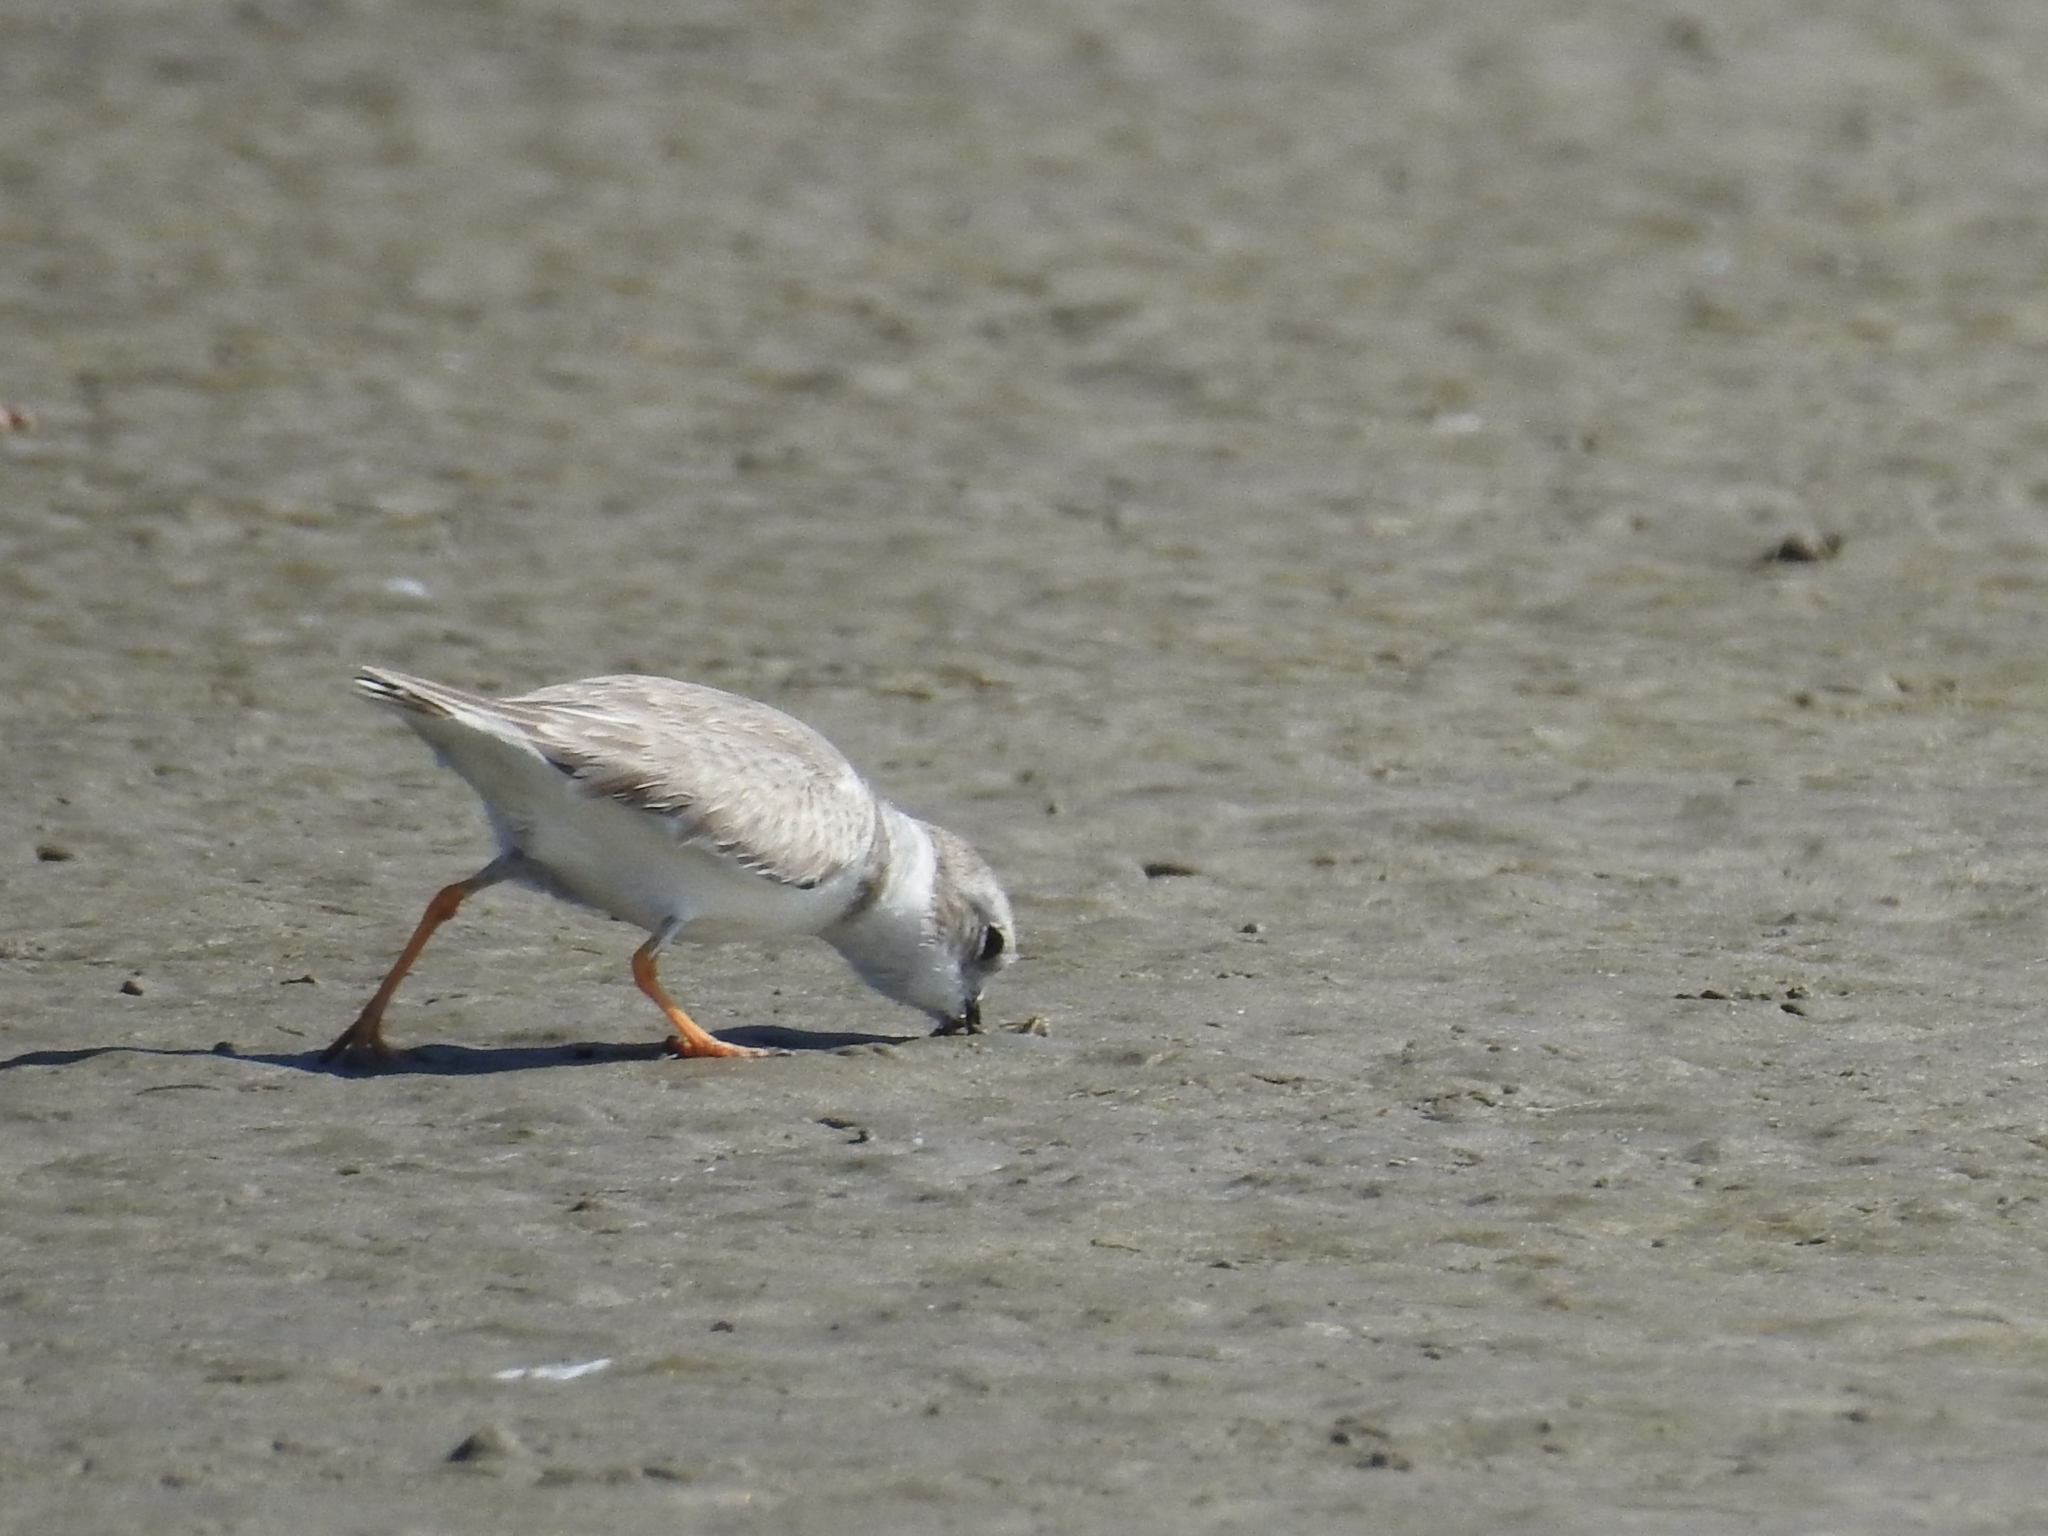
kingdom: Animalia
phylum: Chordata
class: Aves
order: Charadriiformes
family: Charadriidae
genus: Charadrius
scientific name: Charadrius melodus
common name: Piping plover
